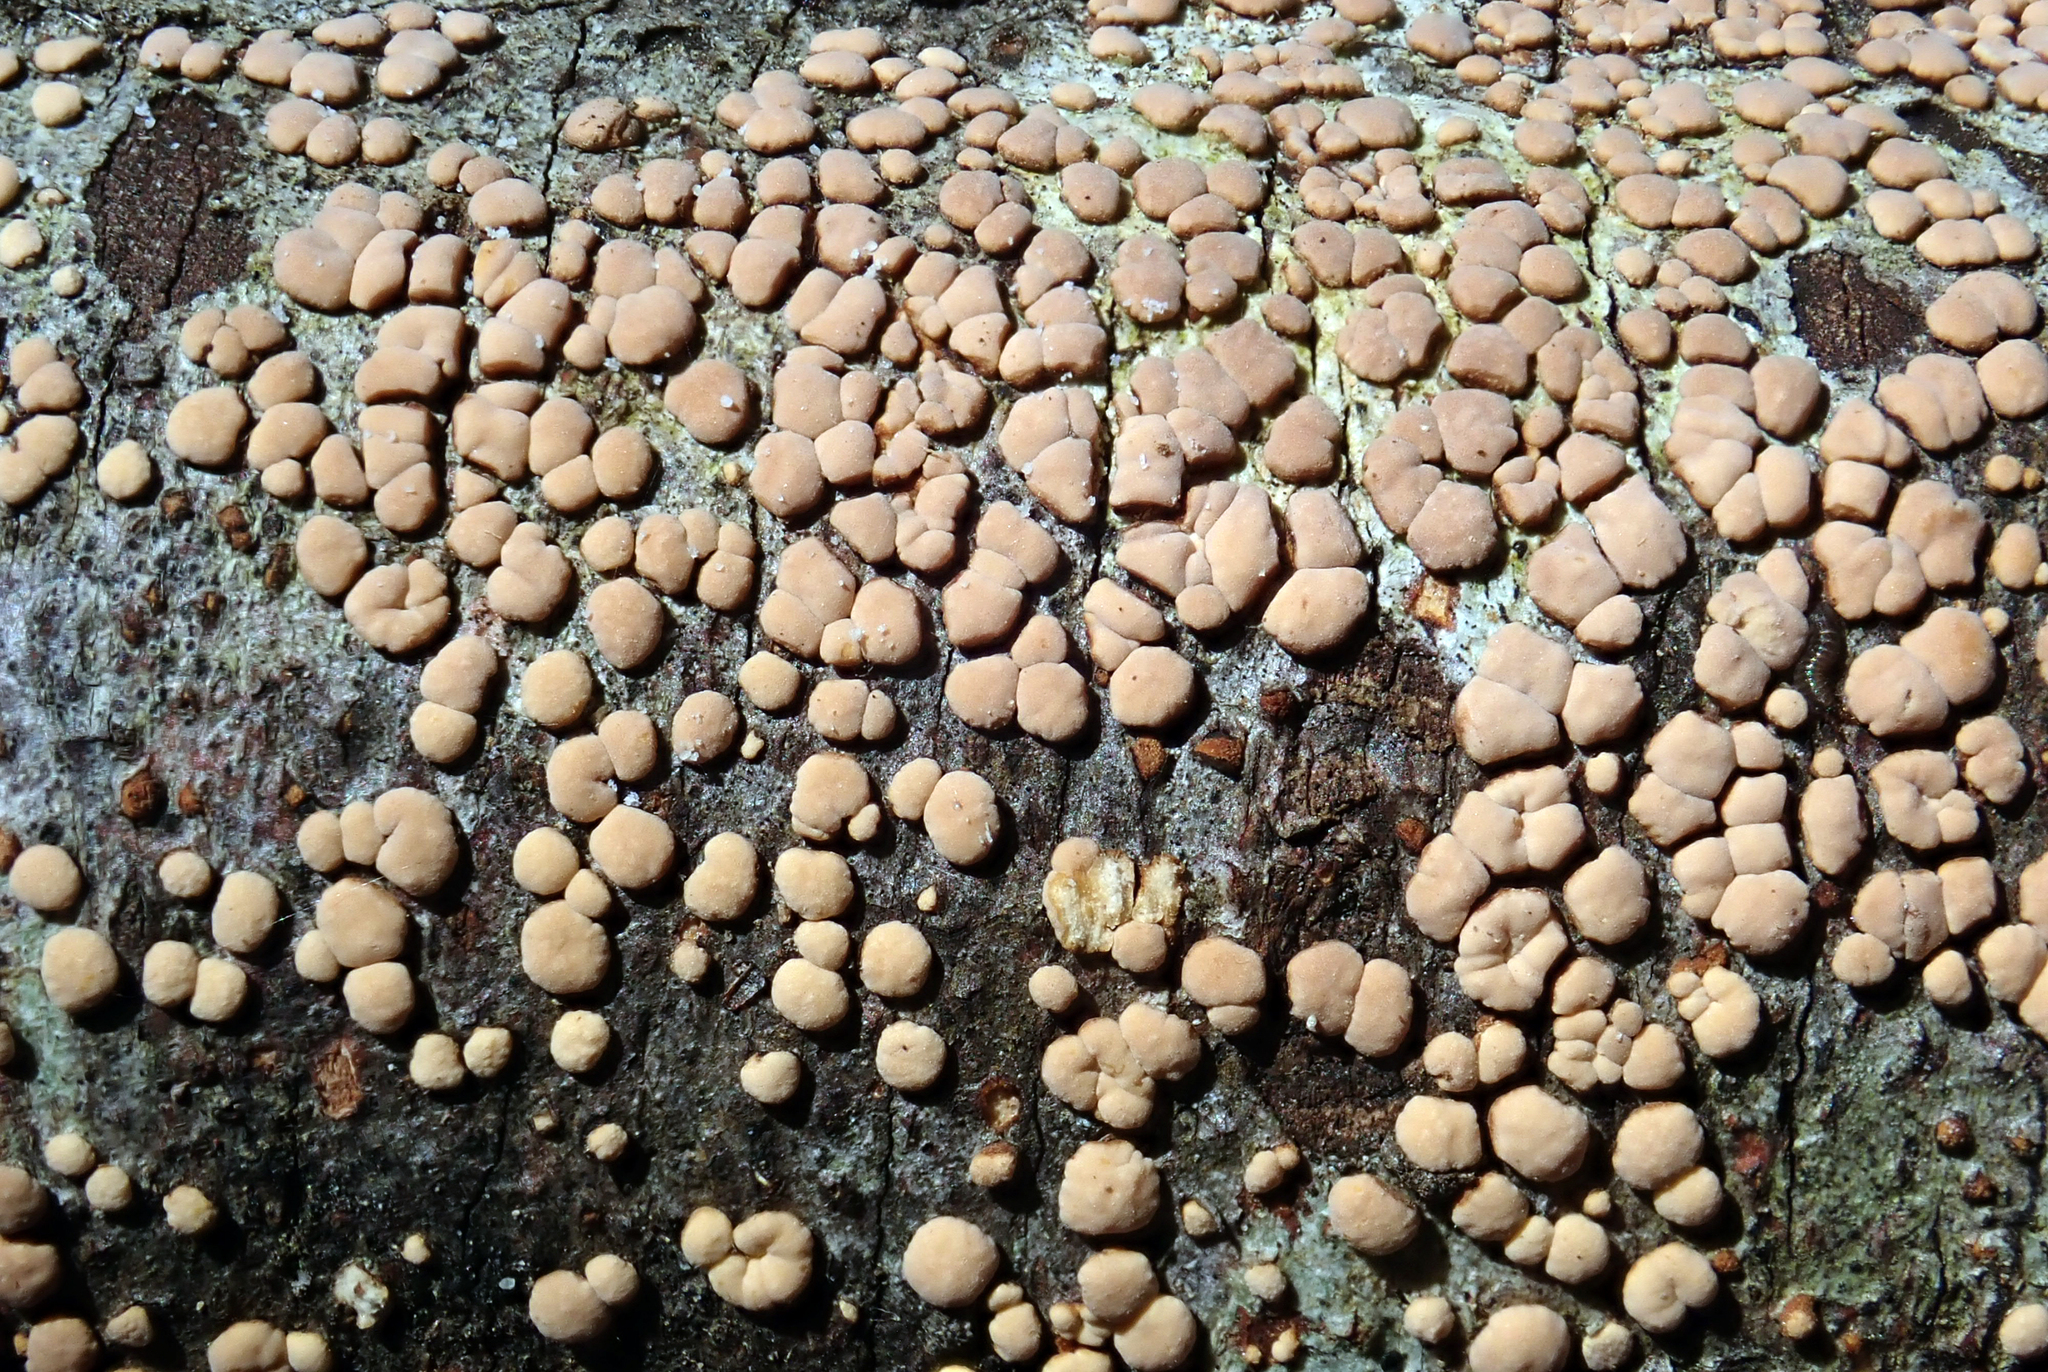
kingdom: Fungi
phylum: Basidiomycota
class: Agaricomycetes
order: Russulales
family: Stereaceae
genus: Aleurodiscus
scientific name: Aleurodiscus berggrenii
